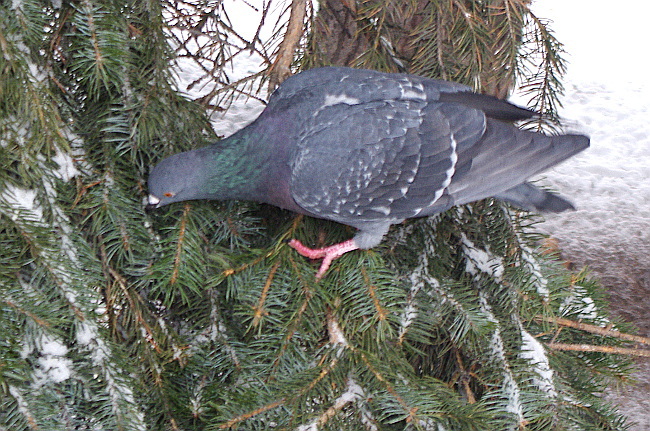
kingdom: Animalia
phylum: Chordata
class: Aves
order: Columbiformes
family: Columbidae
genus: Columba
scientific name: Columba livia
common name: Rock pigeon
